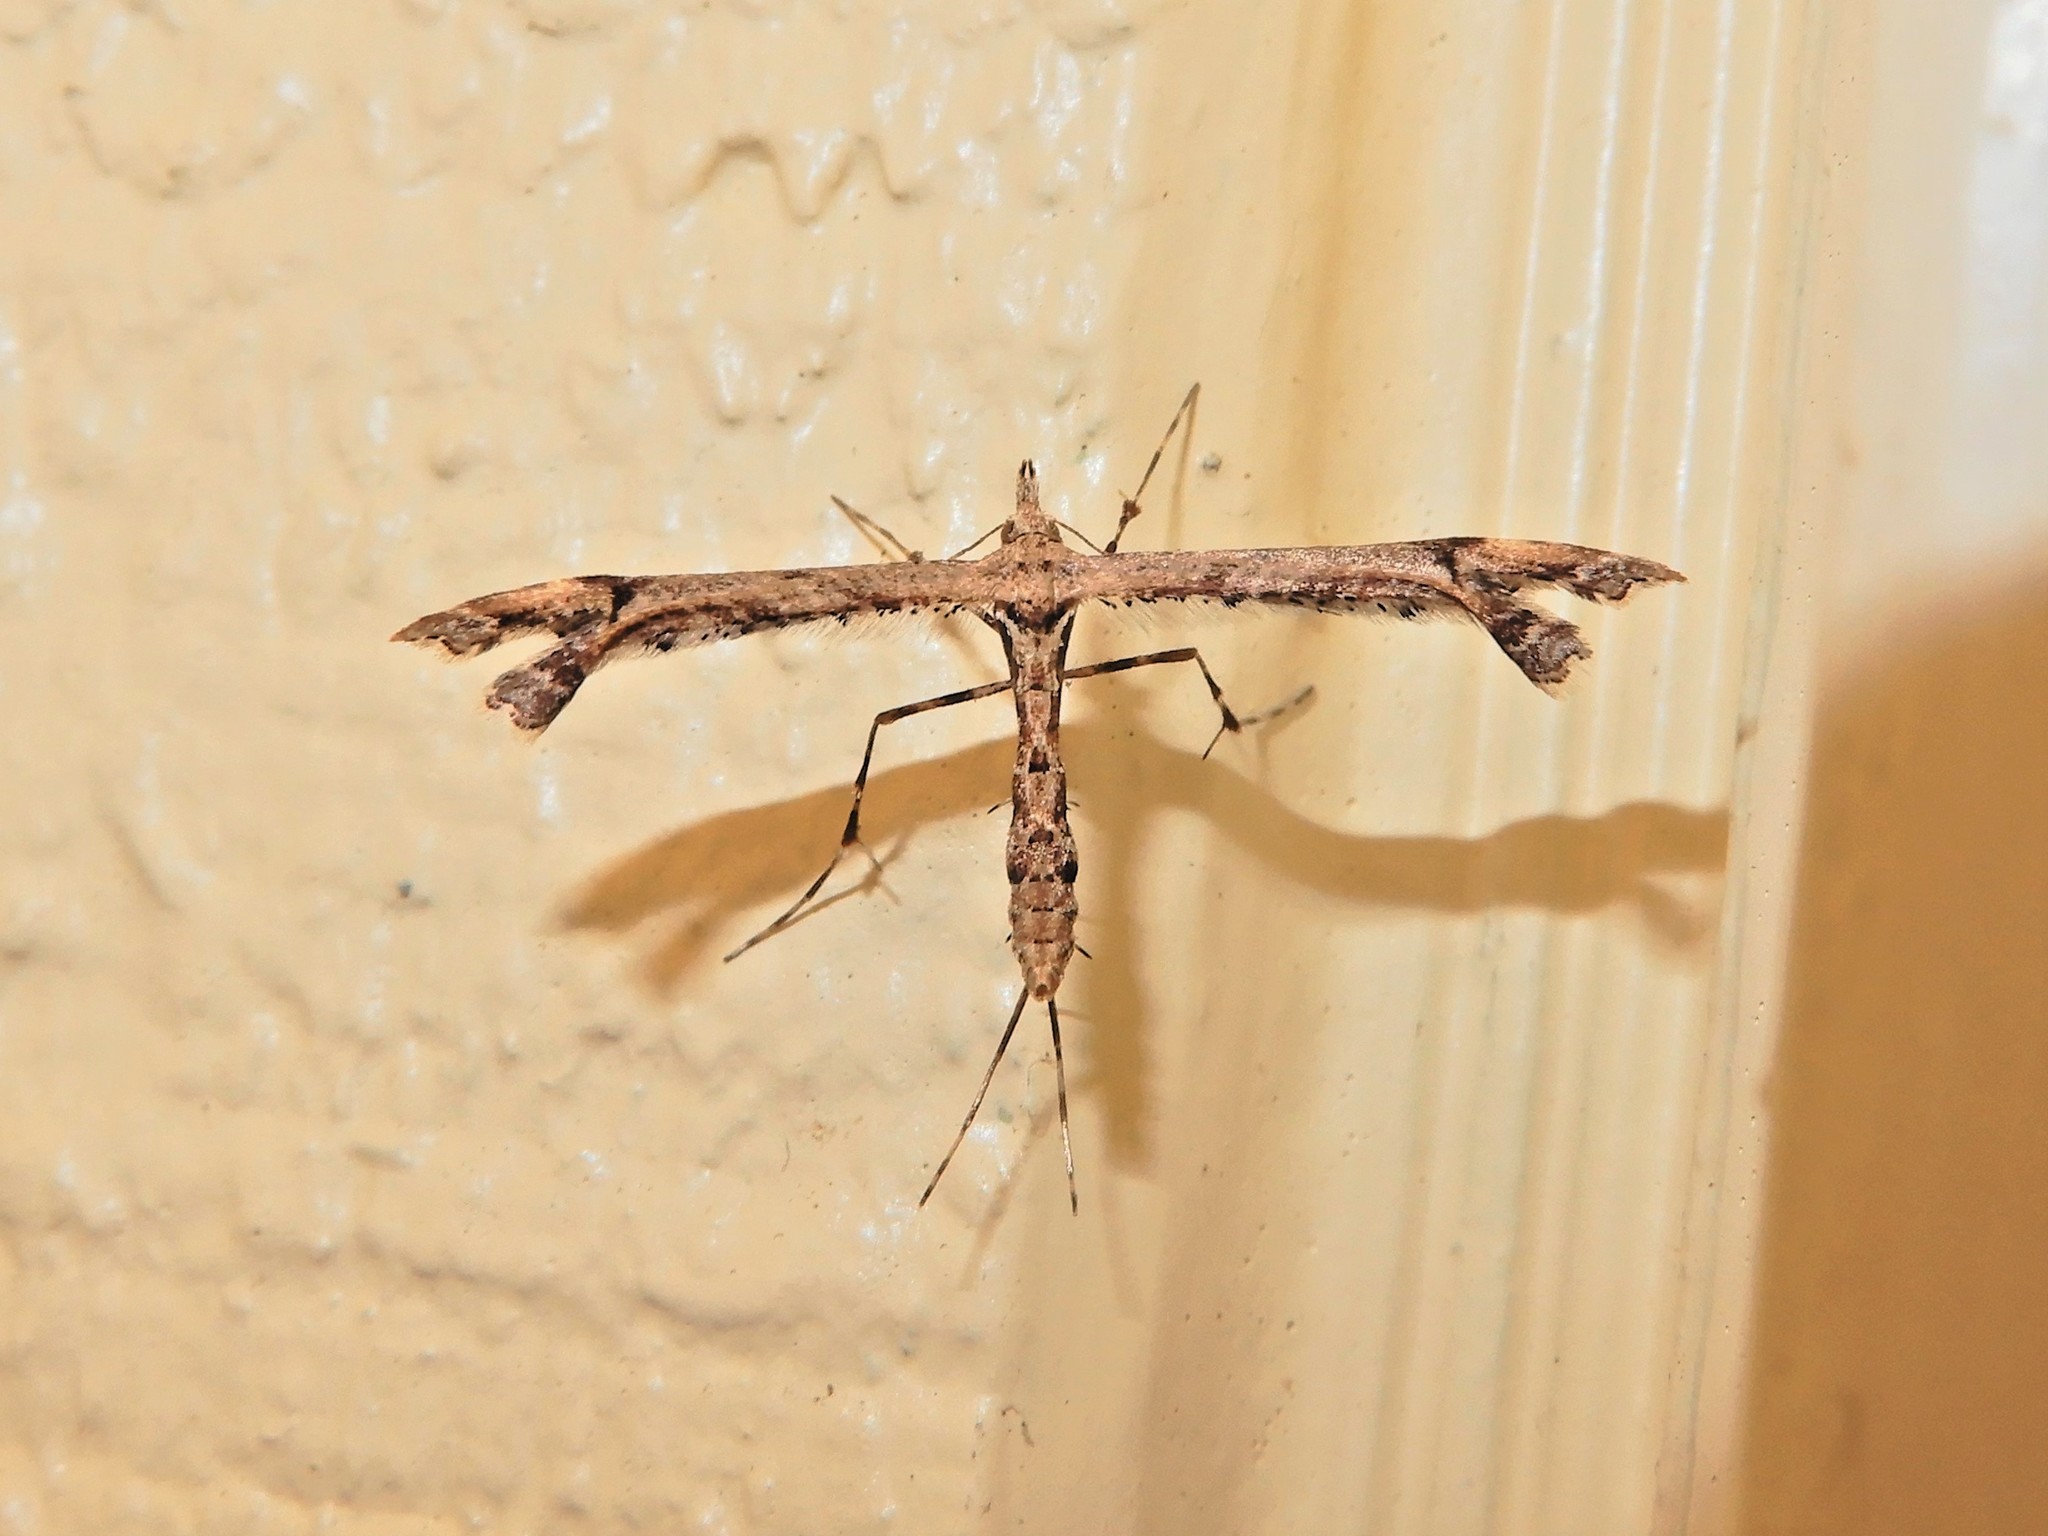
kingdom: Animalia
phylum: Arthropoda
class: Insecta
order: Lepidoptera
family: Pterophoridae
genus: Amblyptilia
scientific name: Amblyptilia repletalis
